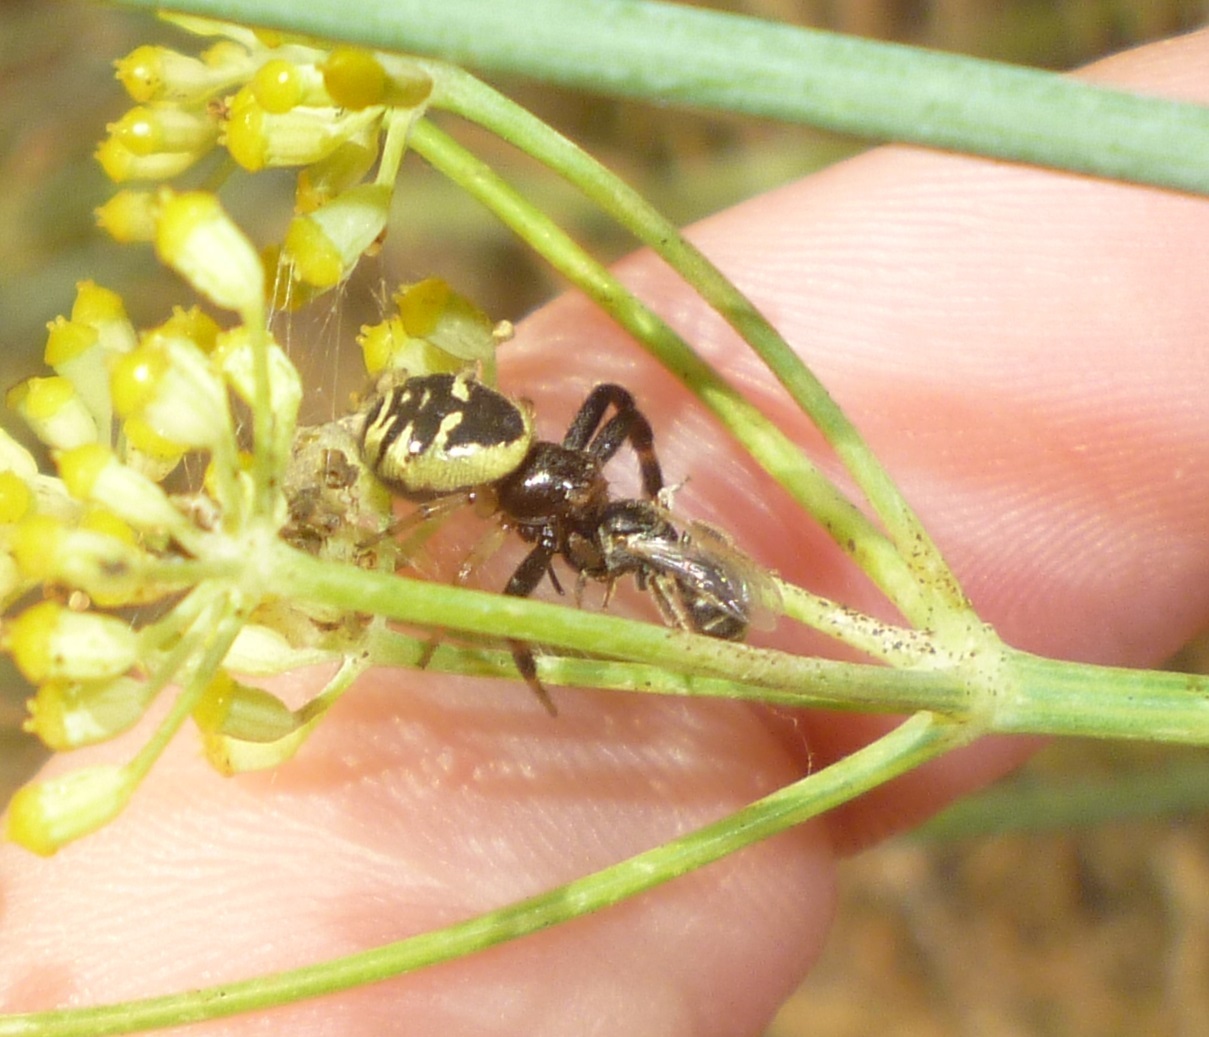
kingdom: Animalia
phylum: Arthropoda
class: Arachnida
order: Araneae
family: Thomisidae
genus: Synema
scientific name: Synema globosum
